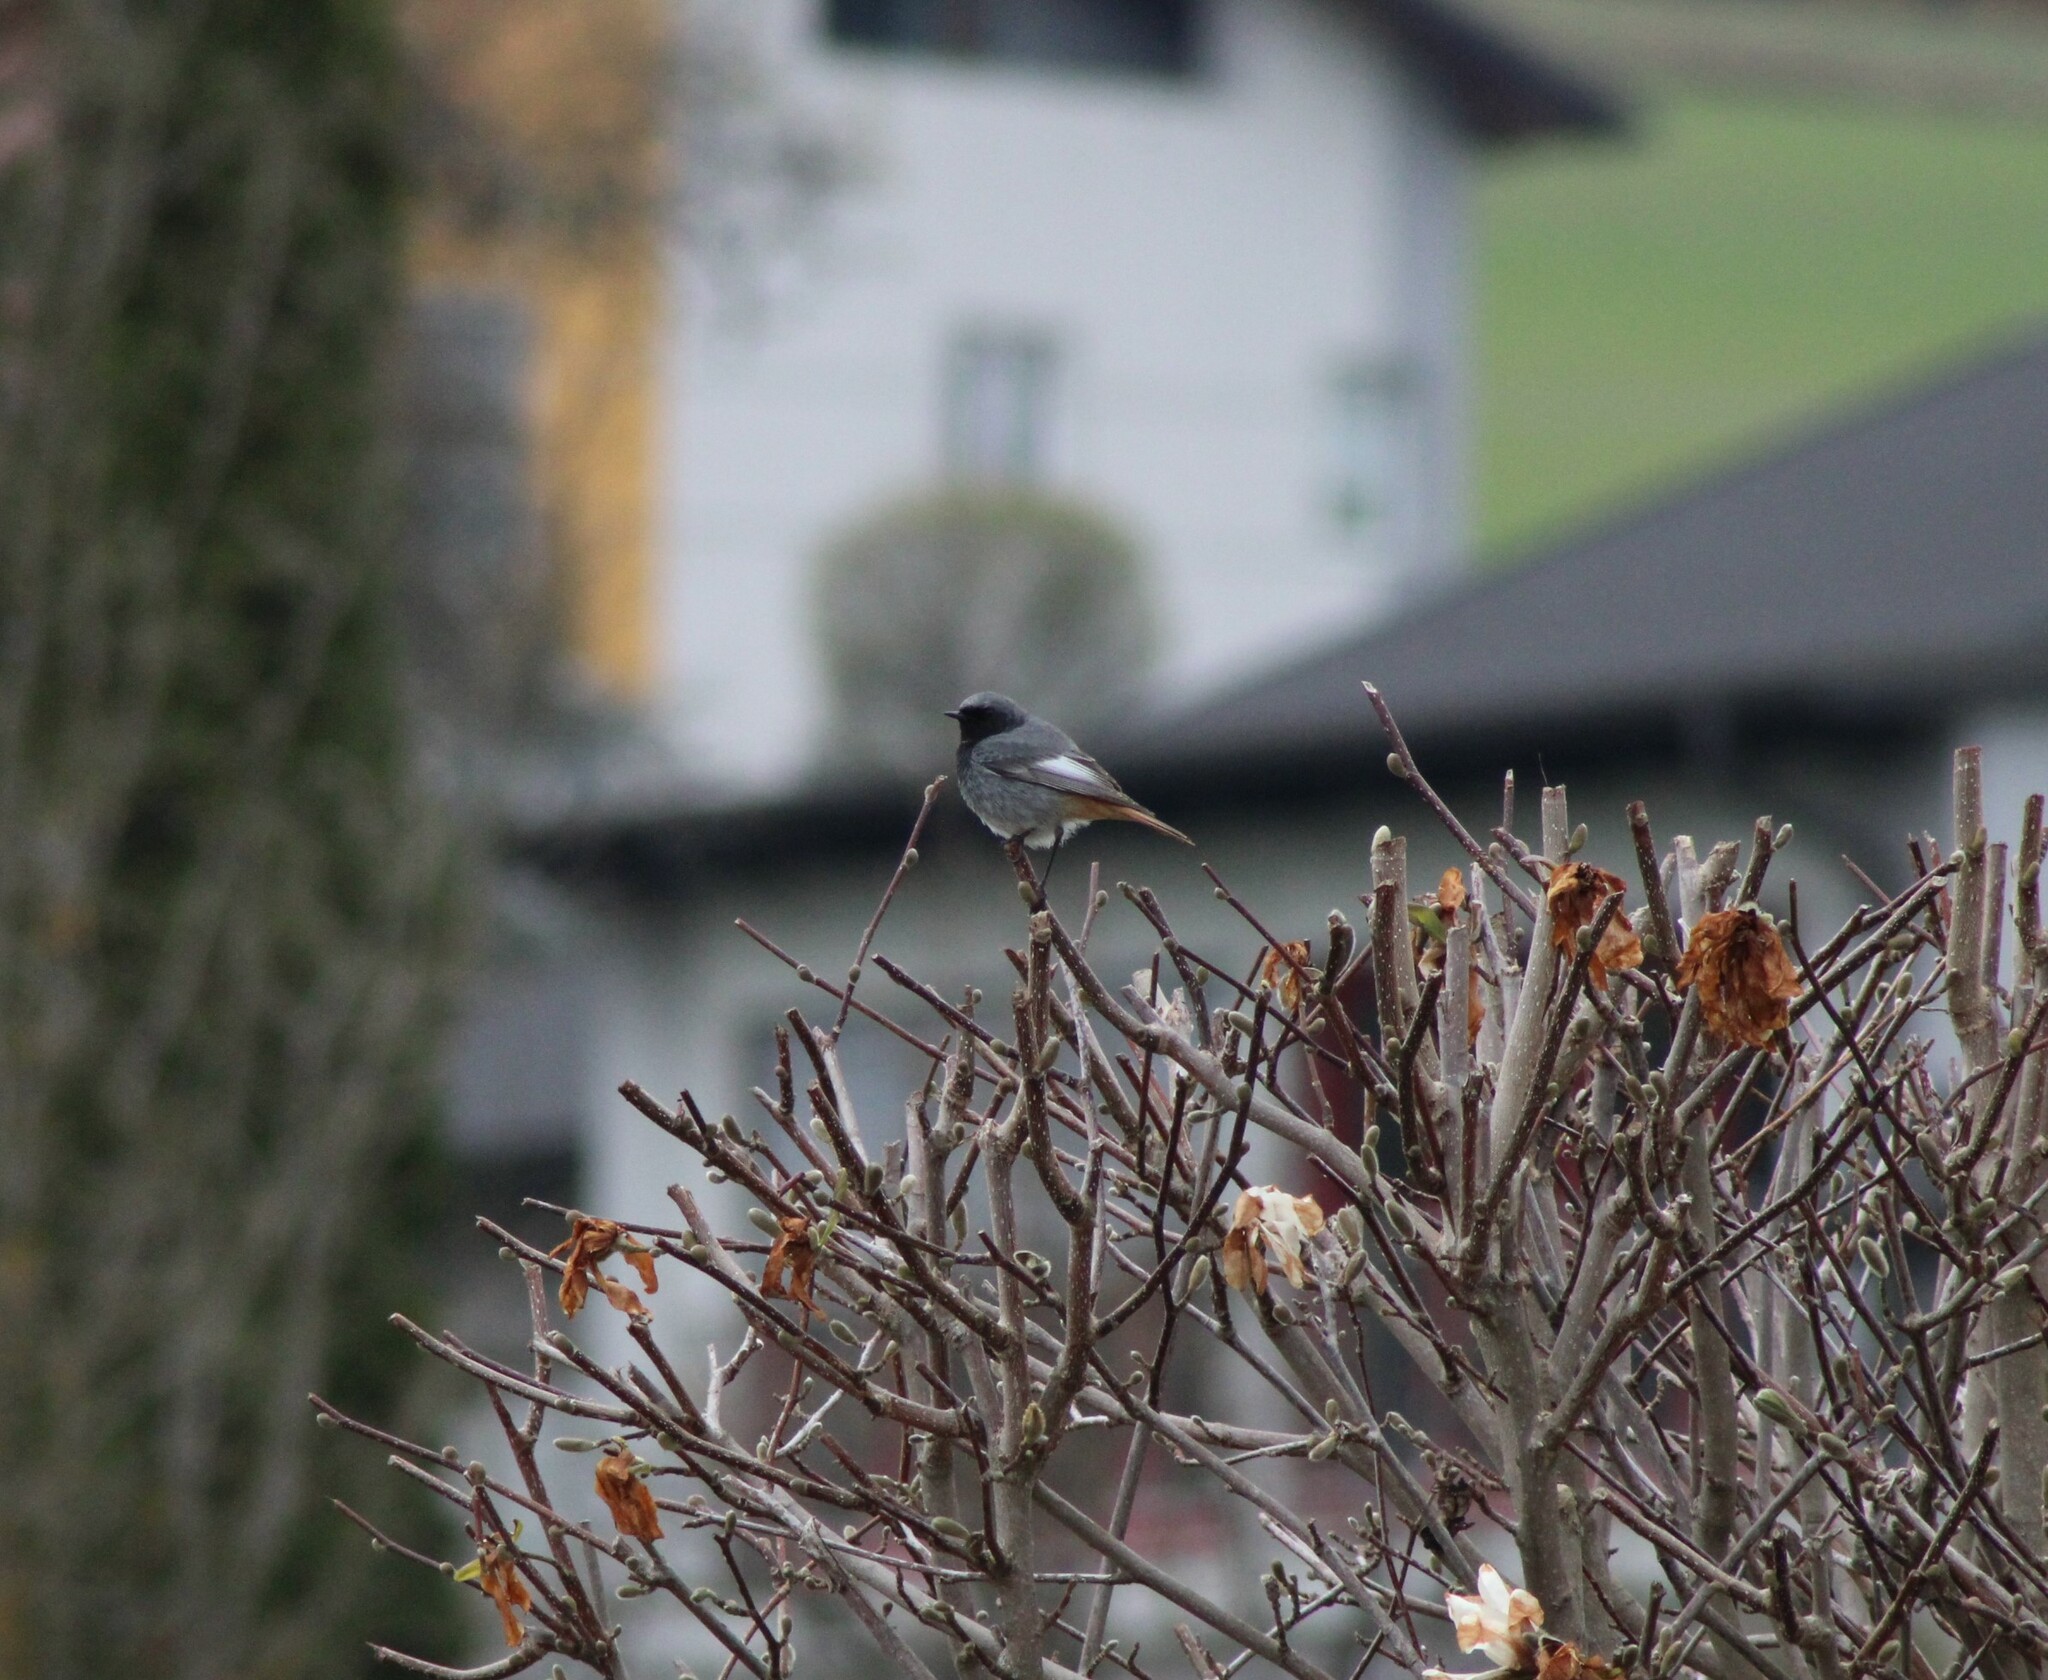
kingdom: Animalia
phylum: Chordata
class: Aves
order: Passeriformes
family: Muscicapidae
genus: Phoenicurus
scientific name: Phoenicurus ochruros
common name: Black redstart
